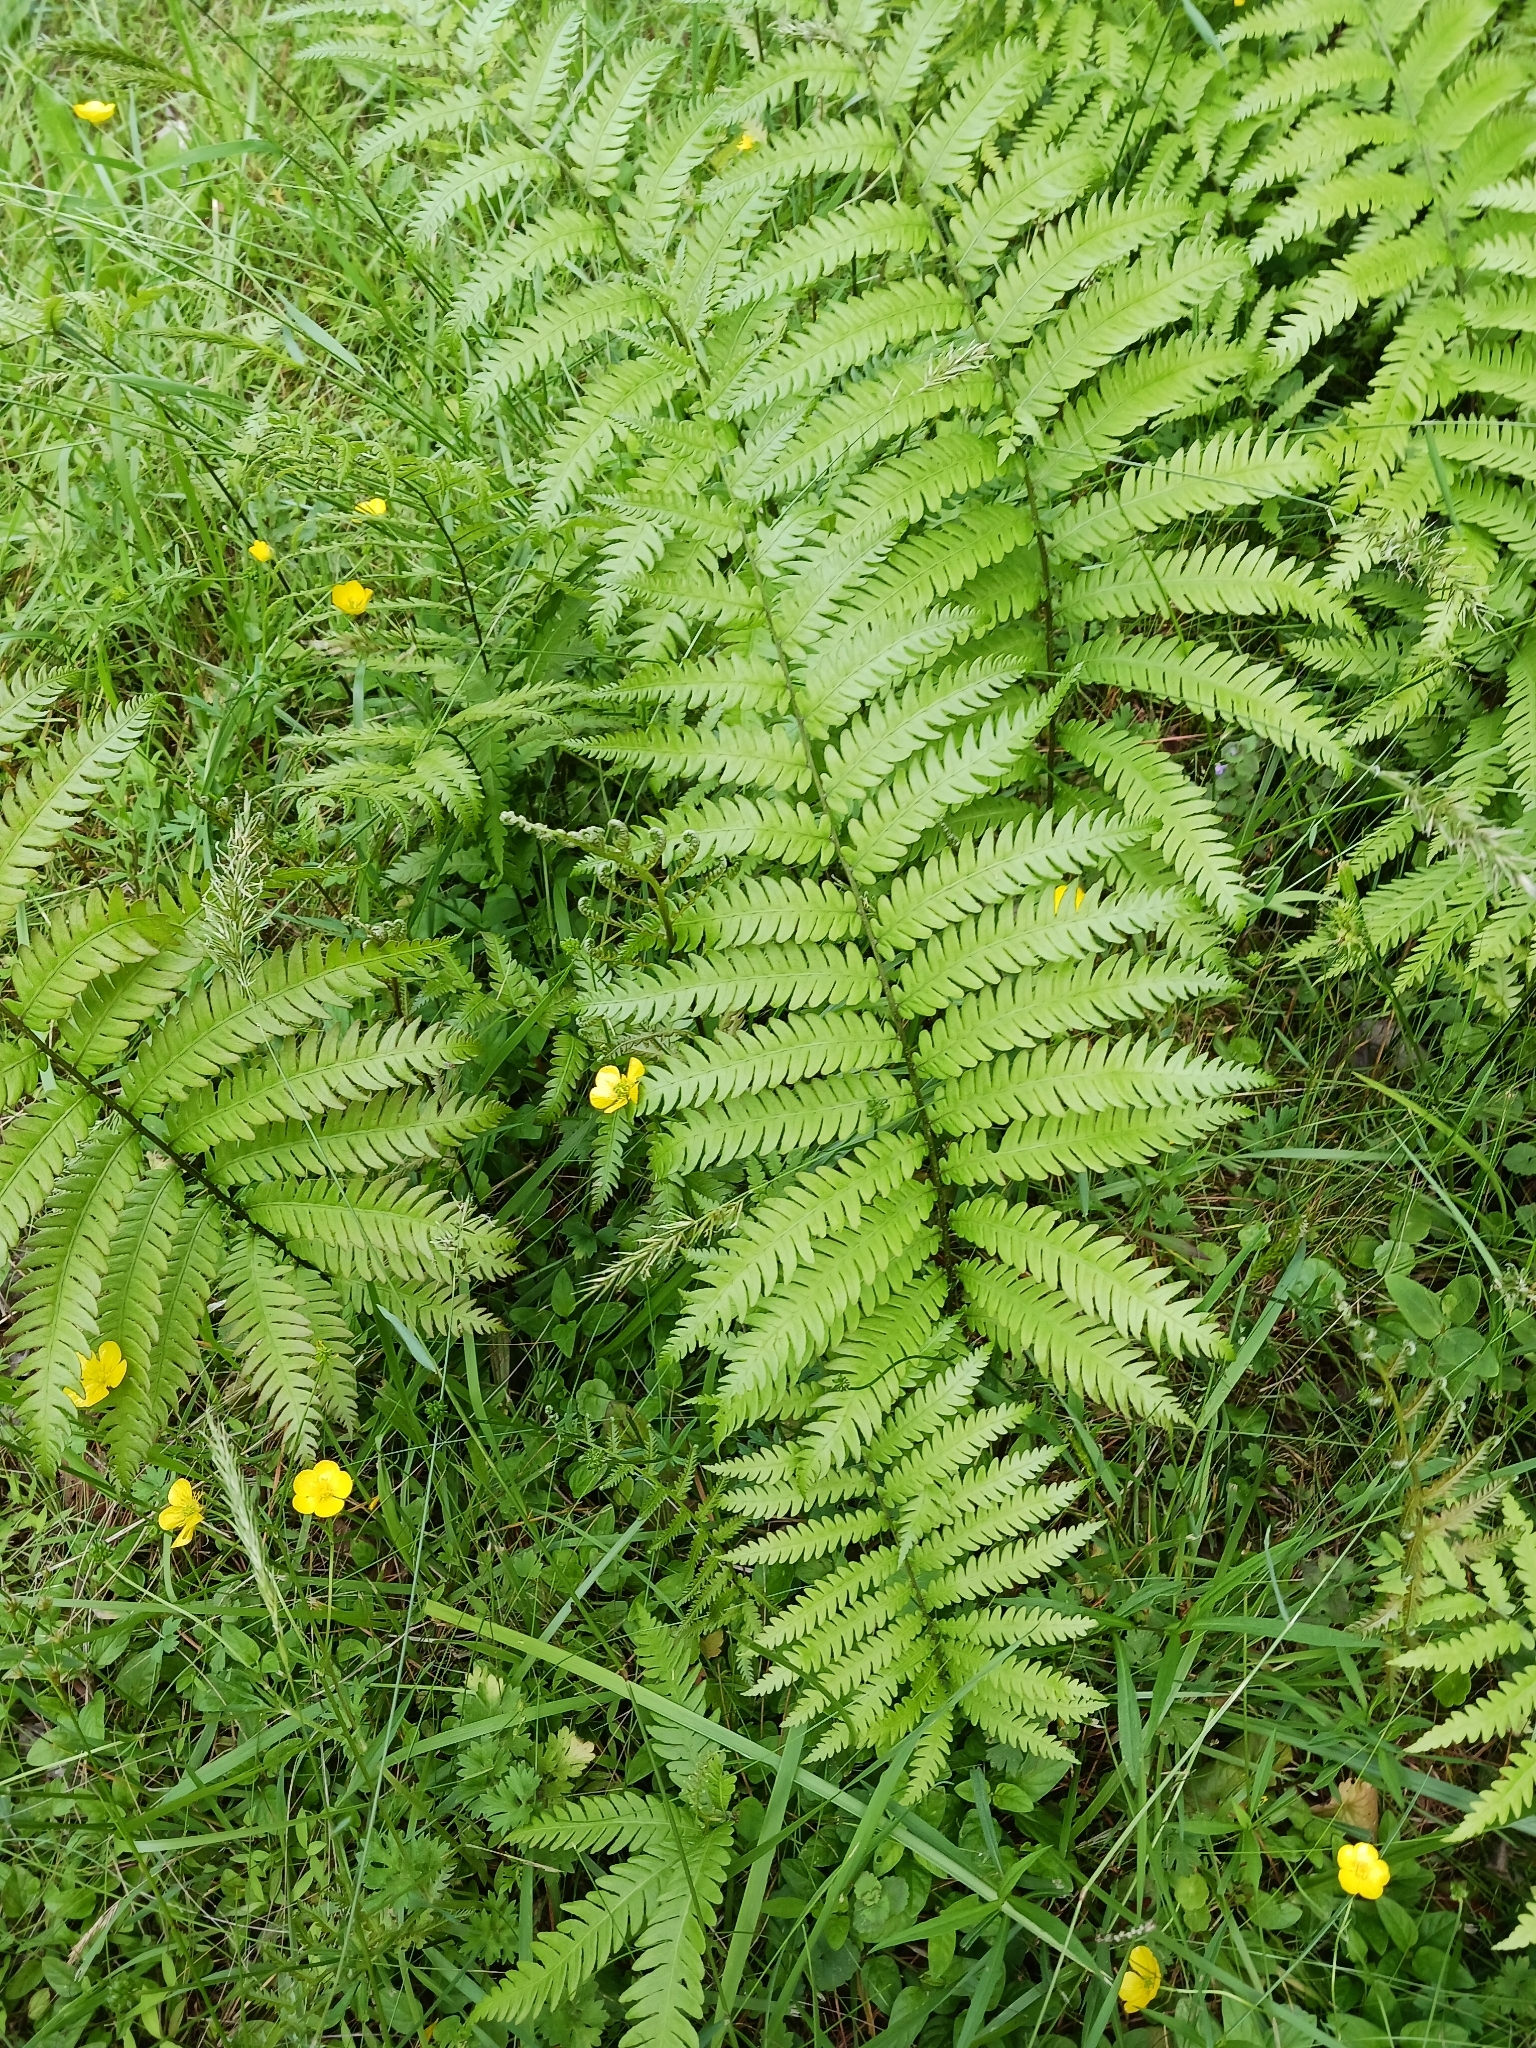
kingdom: Plantae
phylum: Tracheophyta
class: Polypodiopsida
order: Polypodiales
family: Blechnaceae
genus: Anchistea
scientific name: Anchistea virginica
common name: Virginia chain fern
